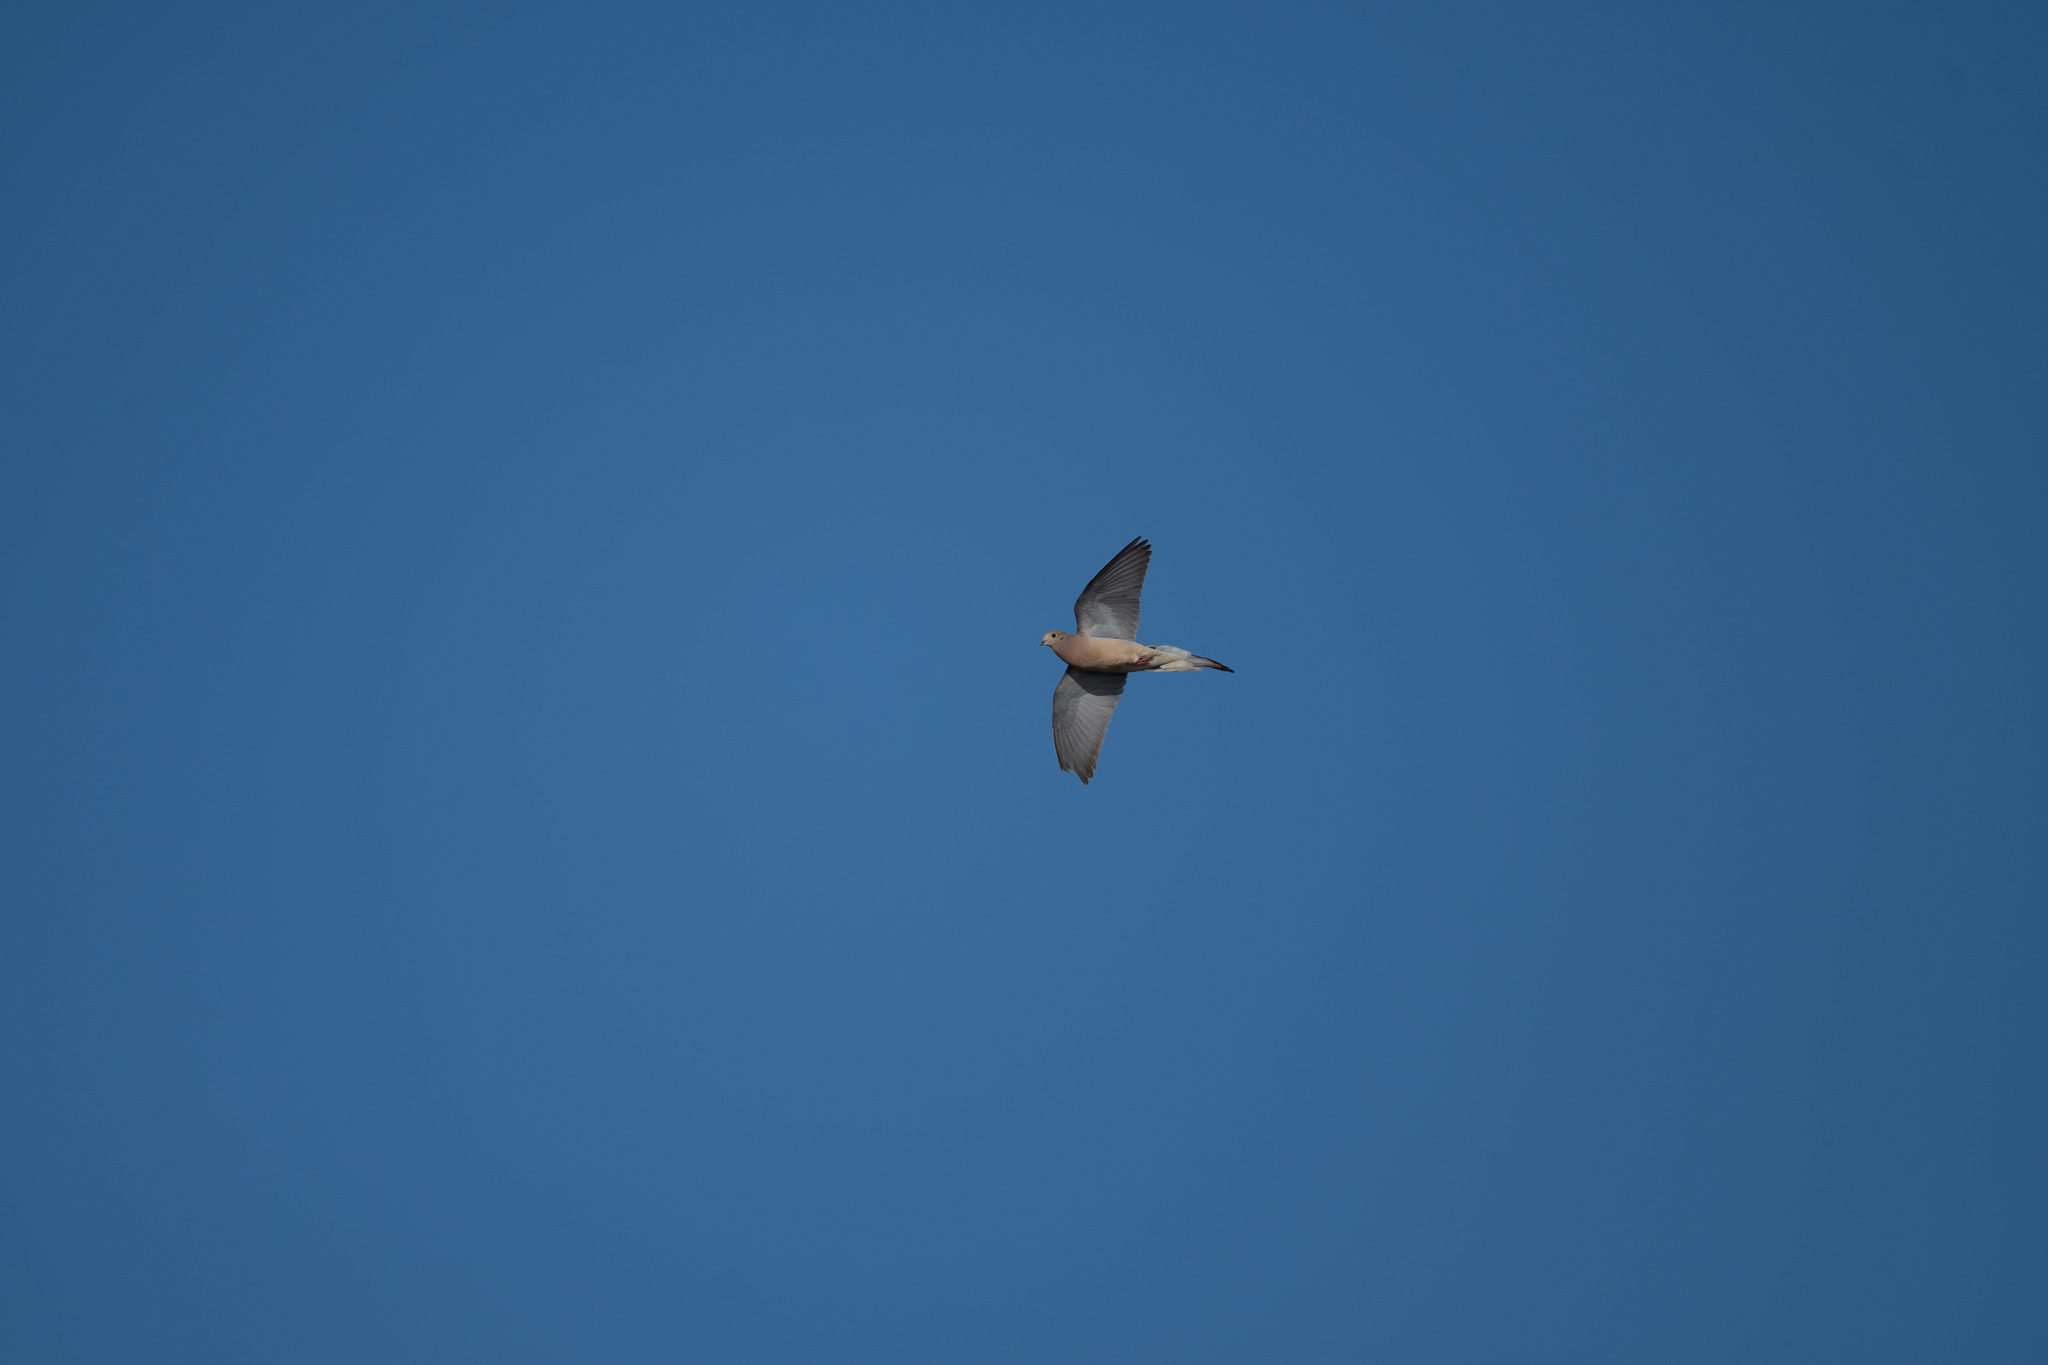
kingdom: Animalia
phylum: Chordata
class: Aves
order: Columbiformes
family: Columbidae
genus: Zenaida
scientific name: Zenaida macroura
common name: Mourning dove
